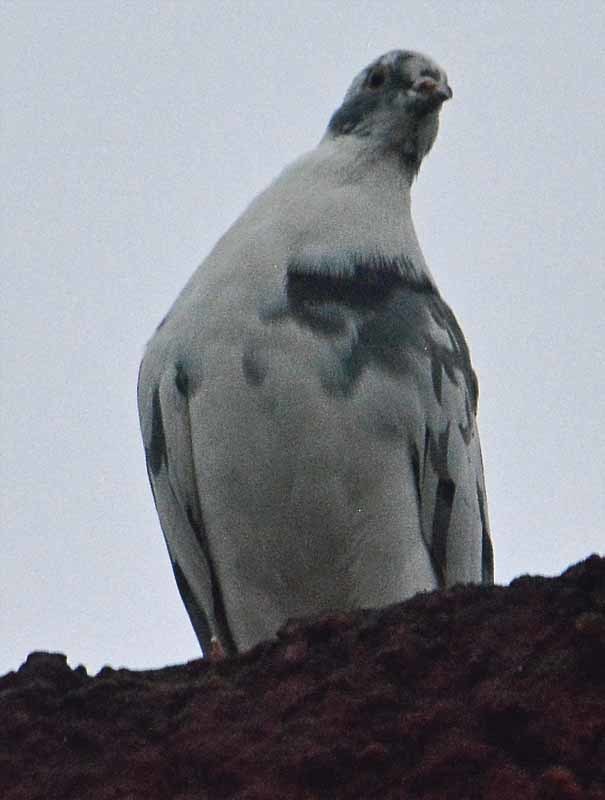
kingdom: Animalia
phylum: Chordata
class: Aves
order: Columbiformes
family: Columbidae
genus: Columba
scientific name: Columba livia
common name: Rock pigeon
